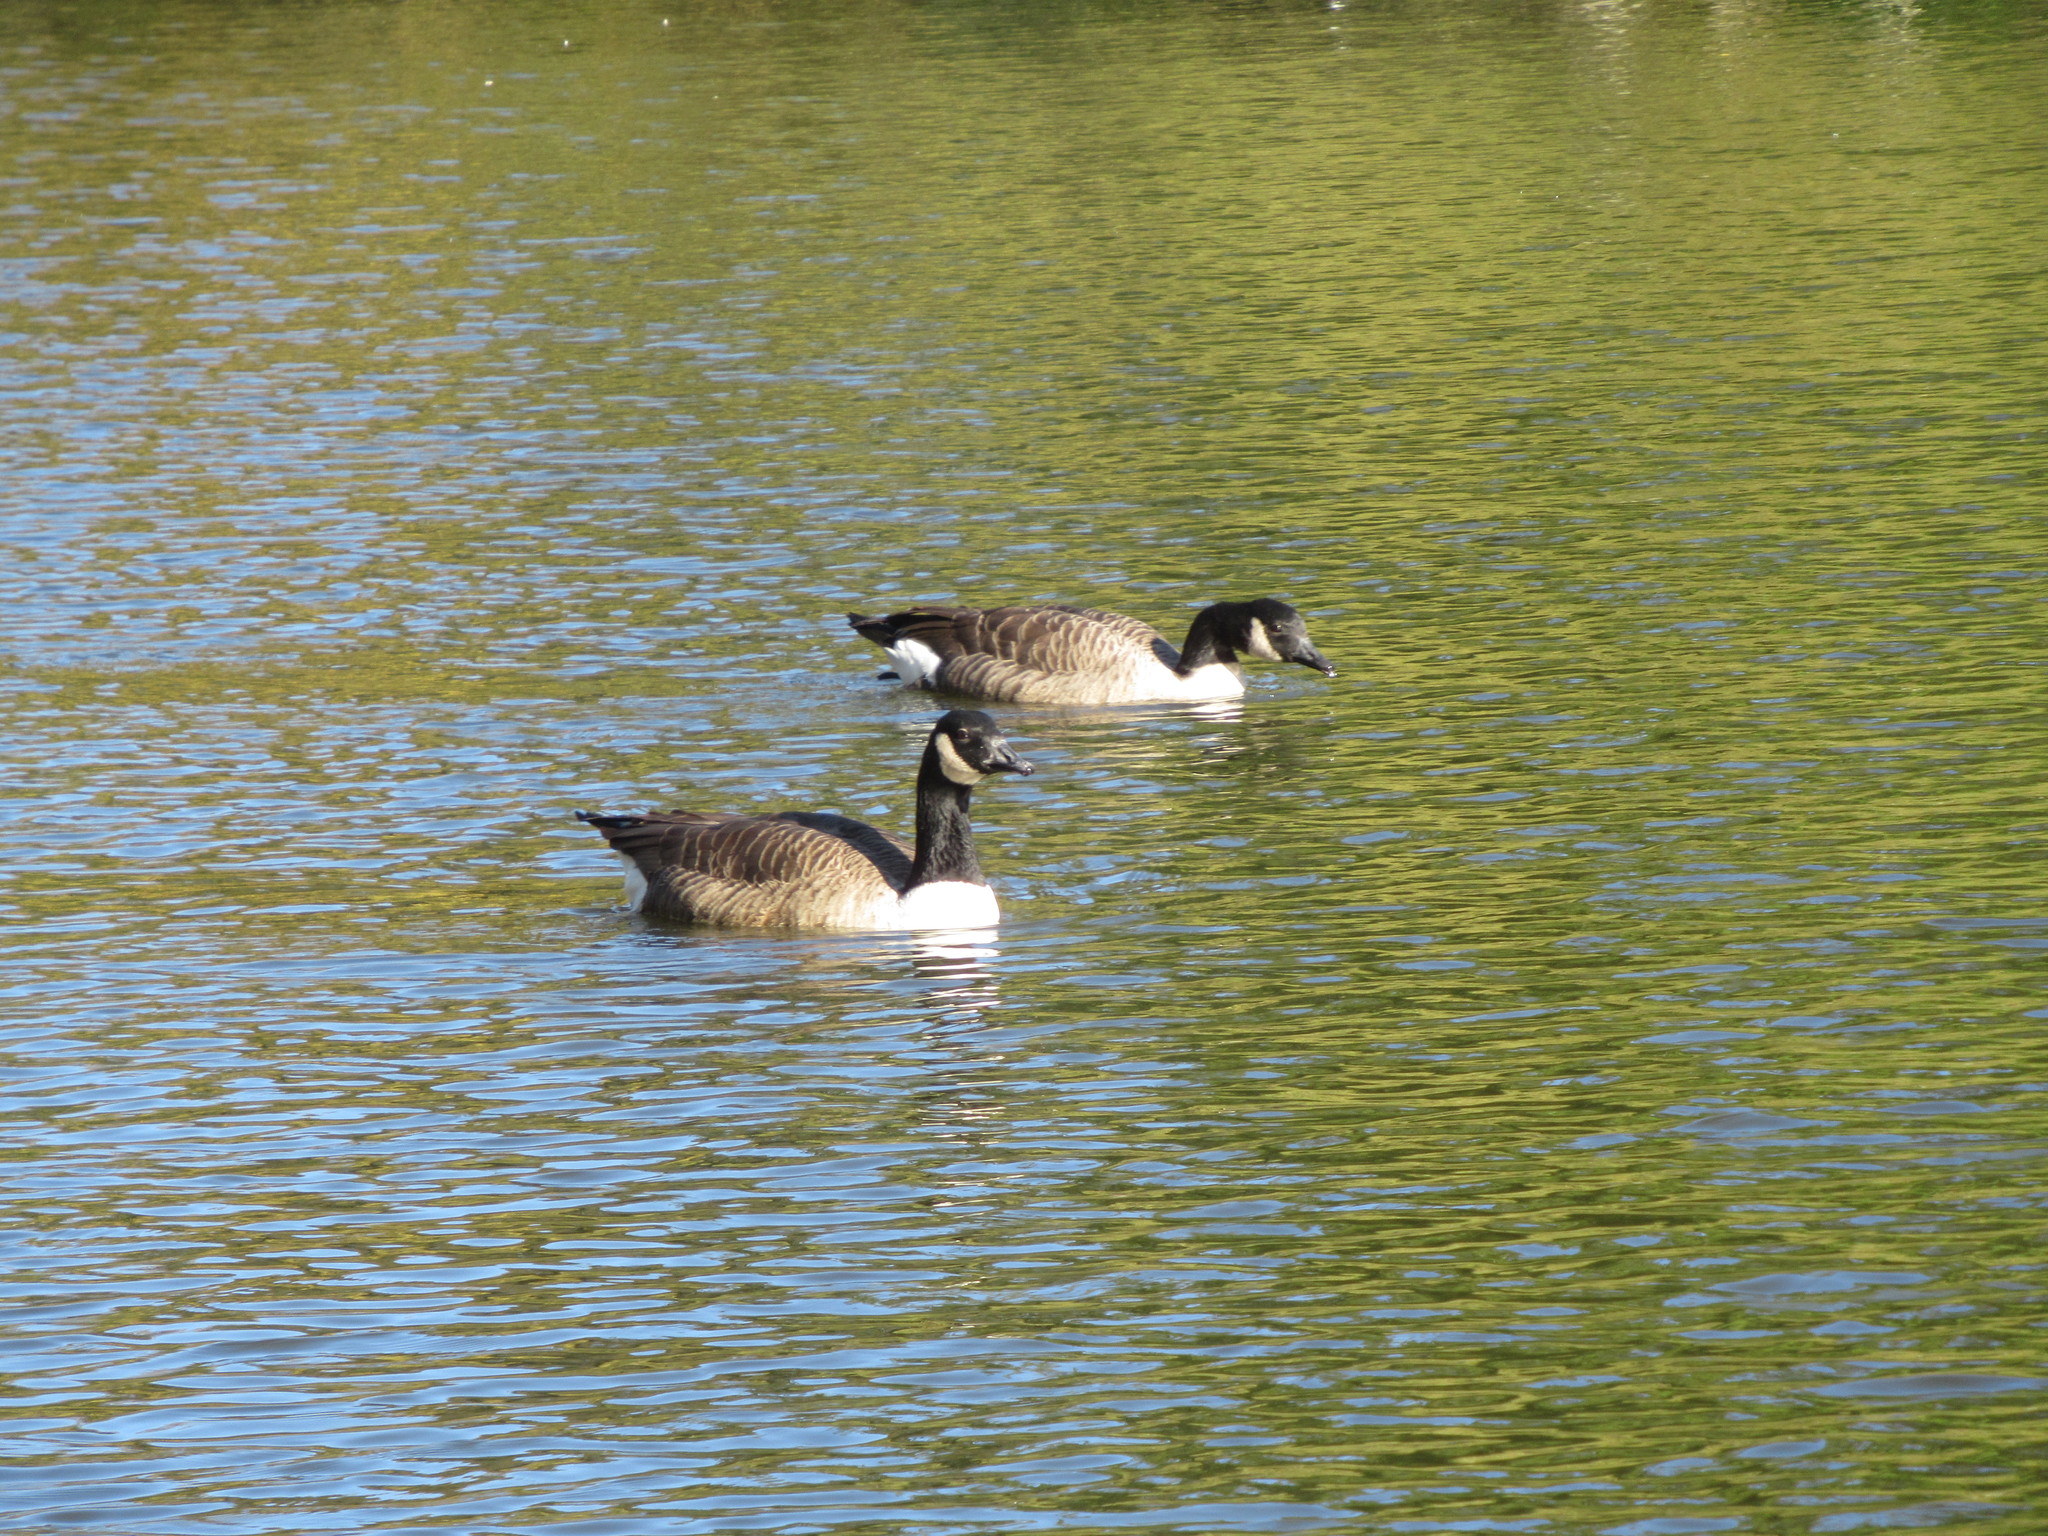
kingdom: Animalia
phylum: Chordata
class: Aves
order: Anseriformes
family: Anatidae
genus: Branta
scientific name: Branta canadensis
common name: Canada goose
